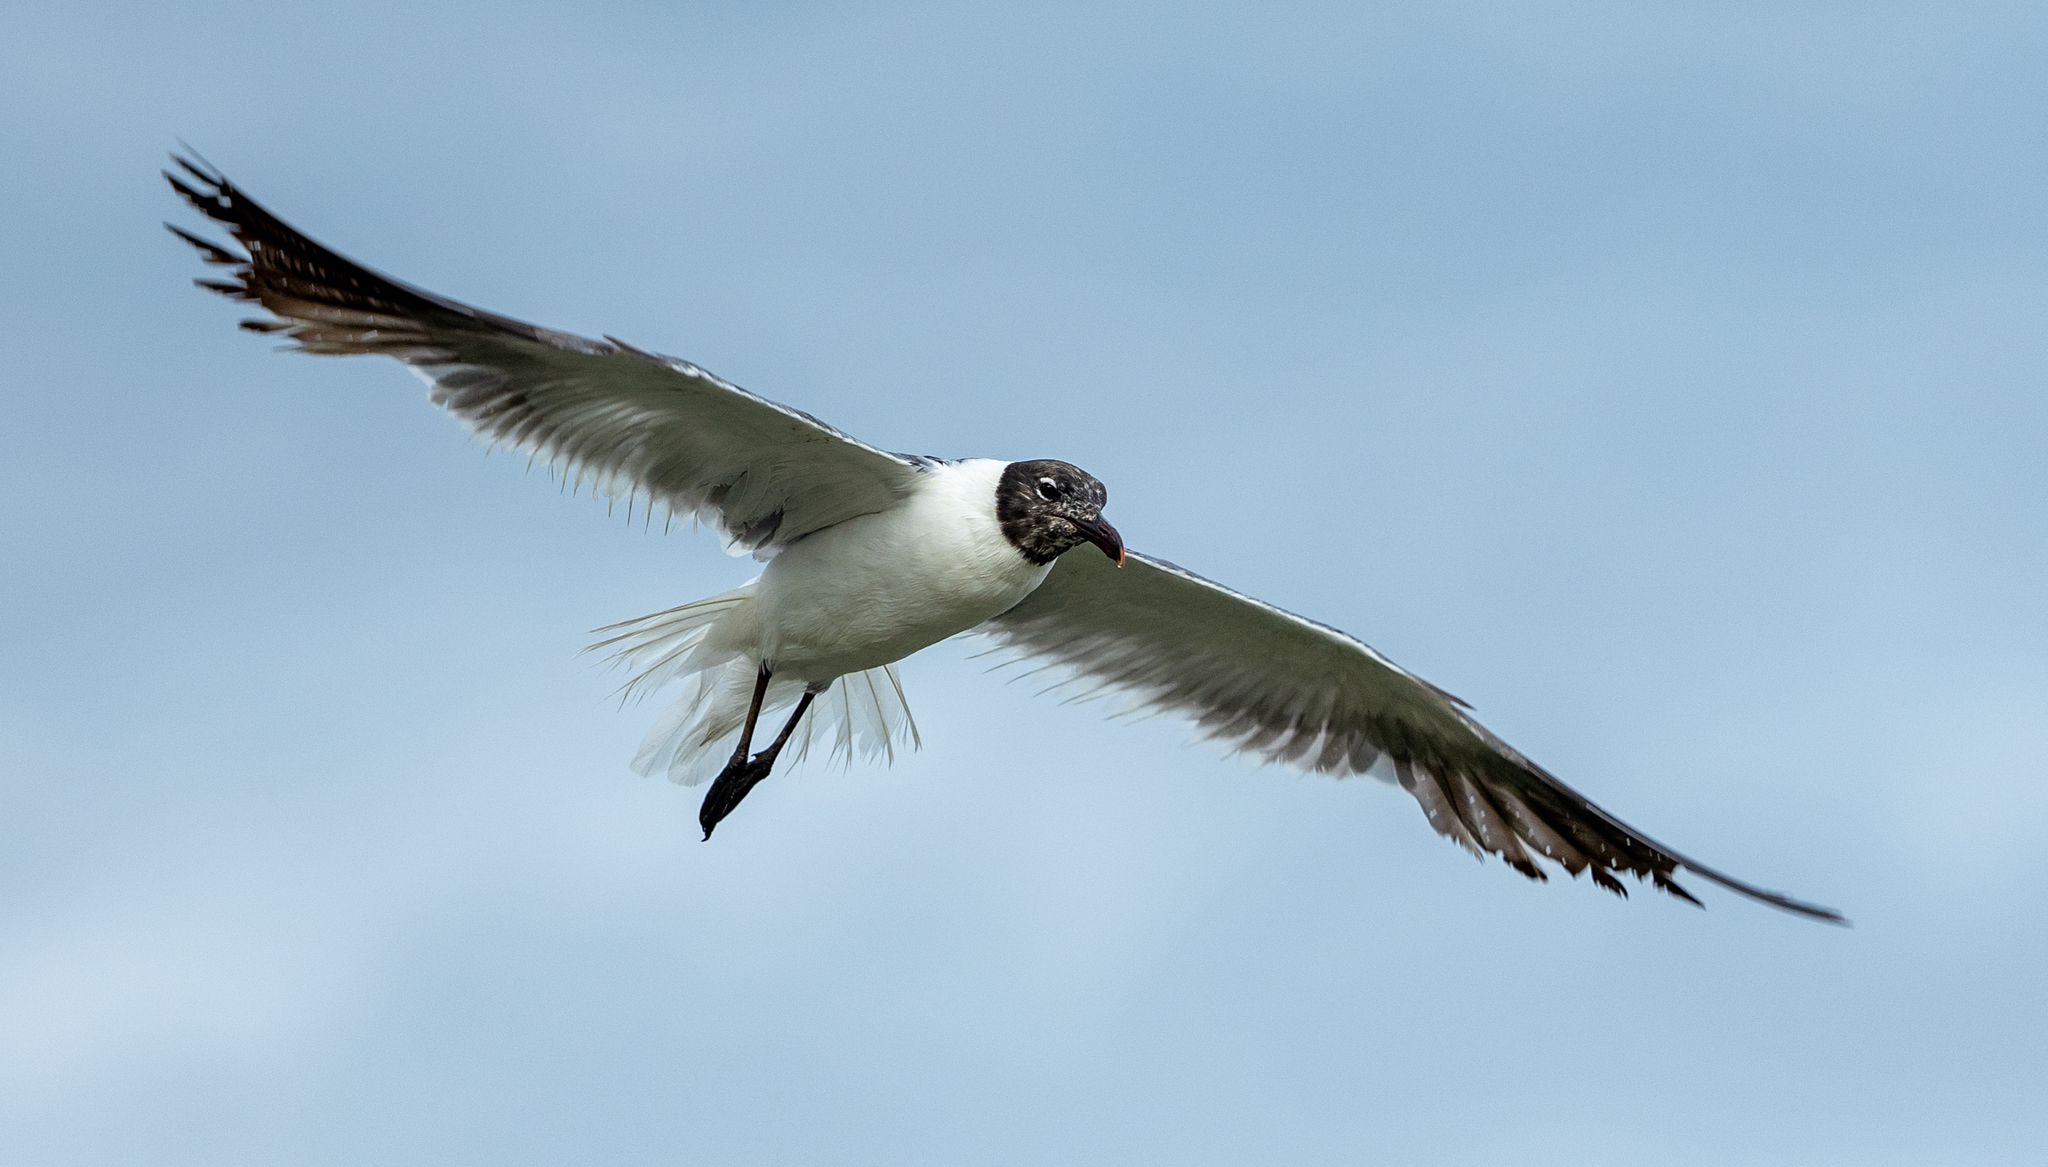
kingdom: Animalia
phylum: Chordata
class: Aves
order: Charadriiformes
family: Laridae
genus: Leucophaeus
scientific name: Leucophaeus atricilla
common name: Laughing gull
